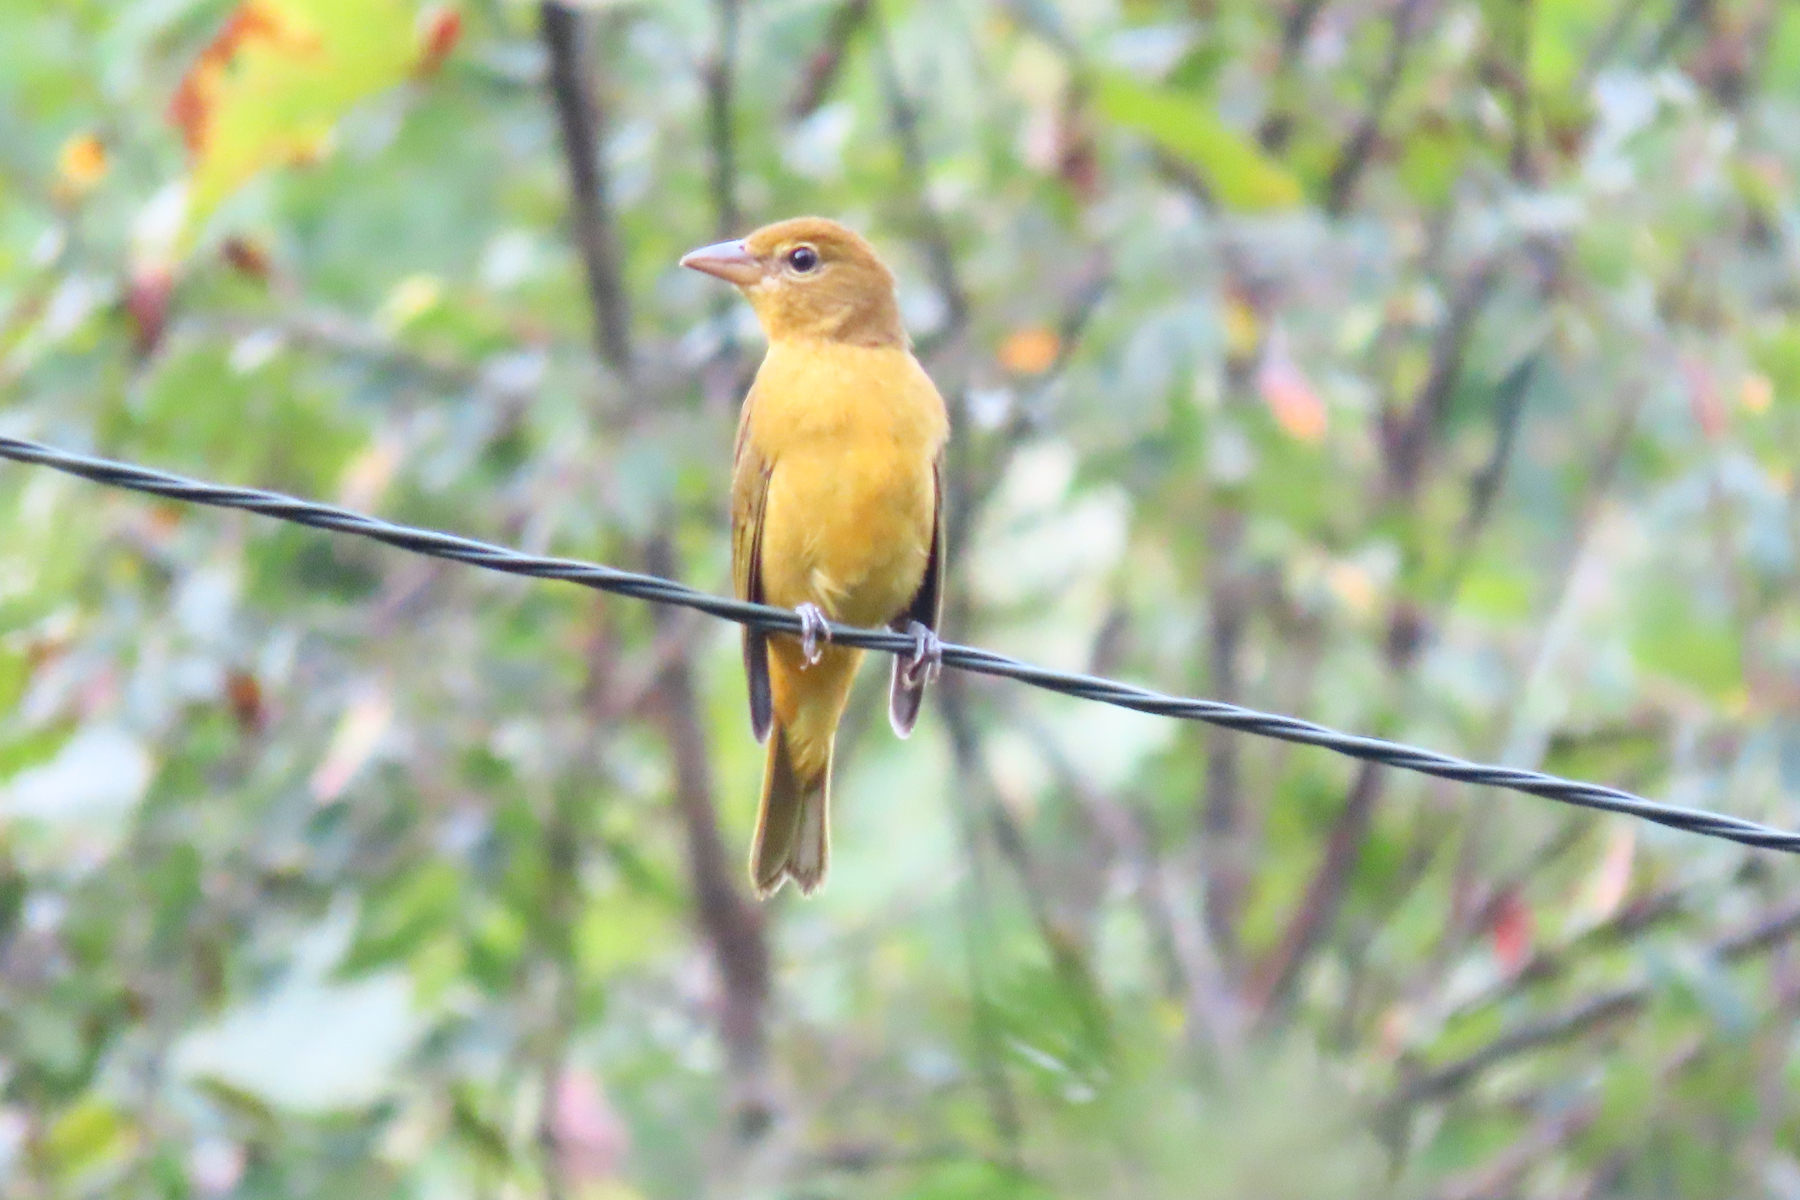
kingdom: Animalia
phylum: Chordata
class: Aves
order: Passeriformes
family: Cardinalidae
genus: Piranga
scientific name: Piranga rubra
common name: Summer tanager
